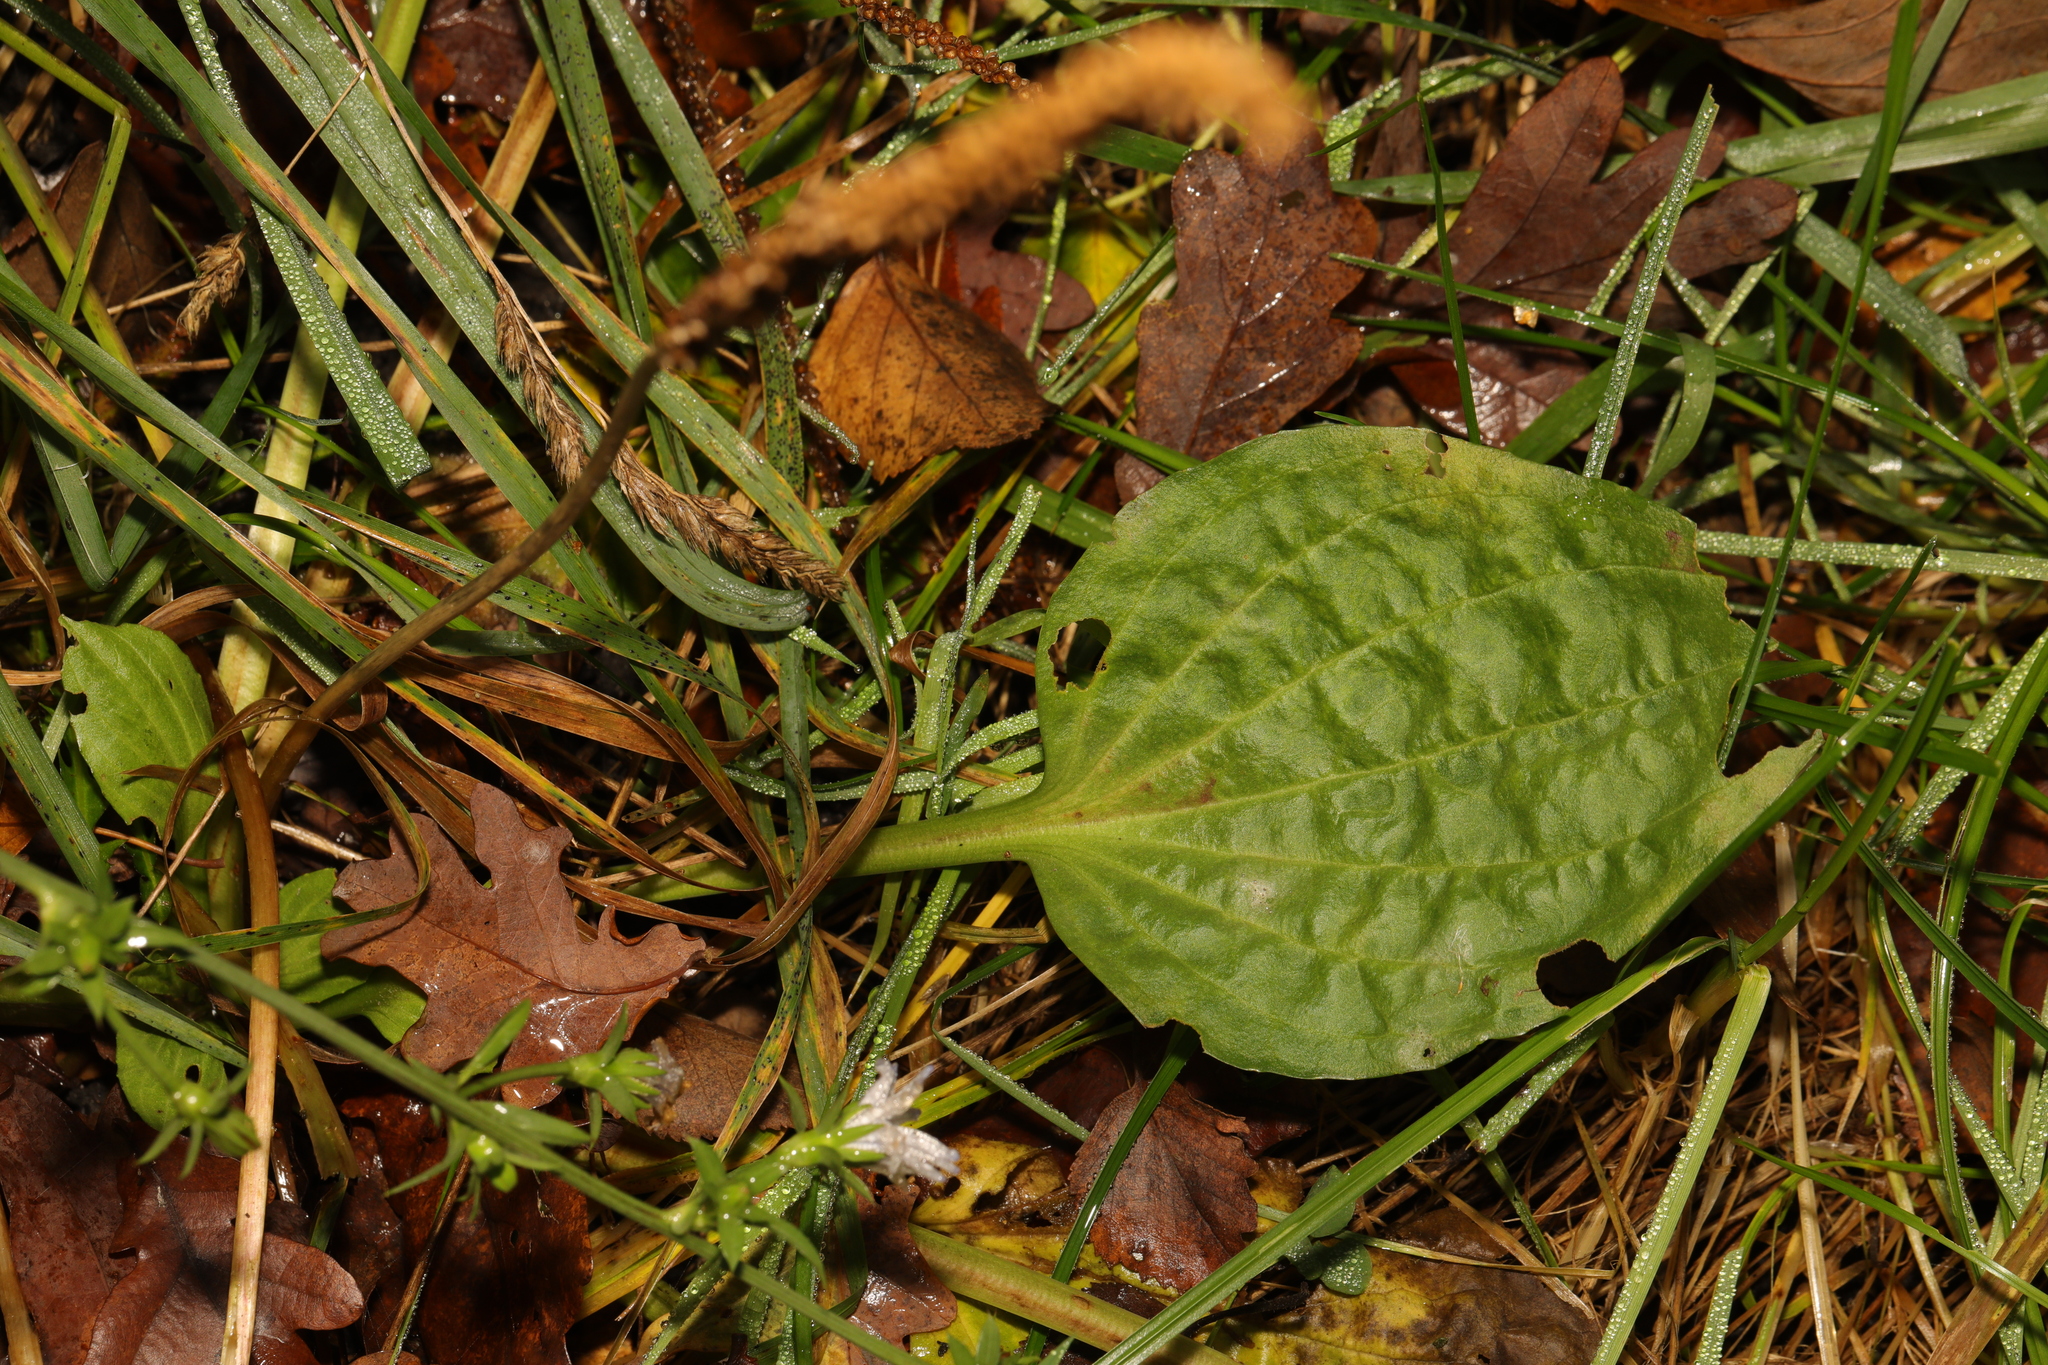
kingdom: Plantae
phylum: Tracheophyta
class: Magnoliopsida
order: Lamiales
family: Plantaginaceae
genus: Plantago
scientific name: Plantago major
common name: Common plantain
